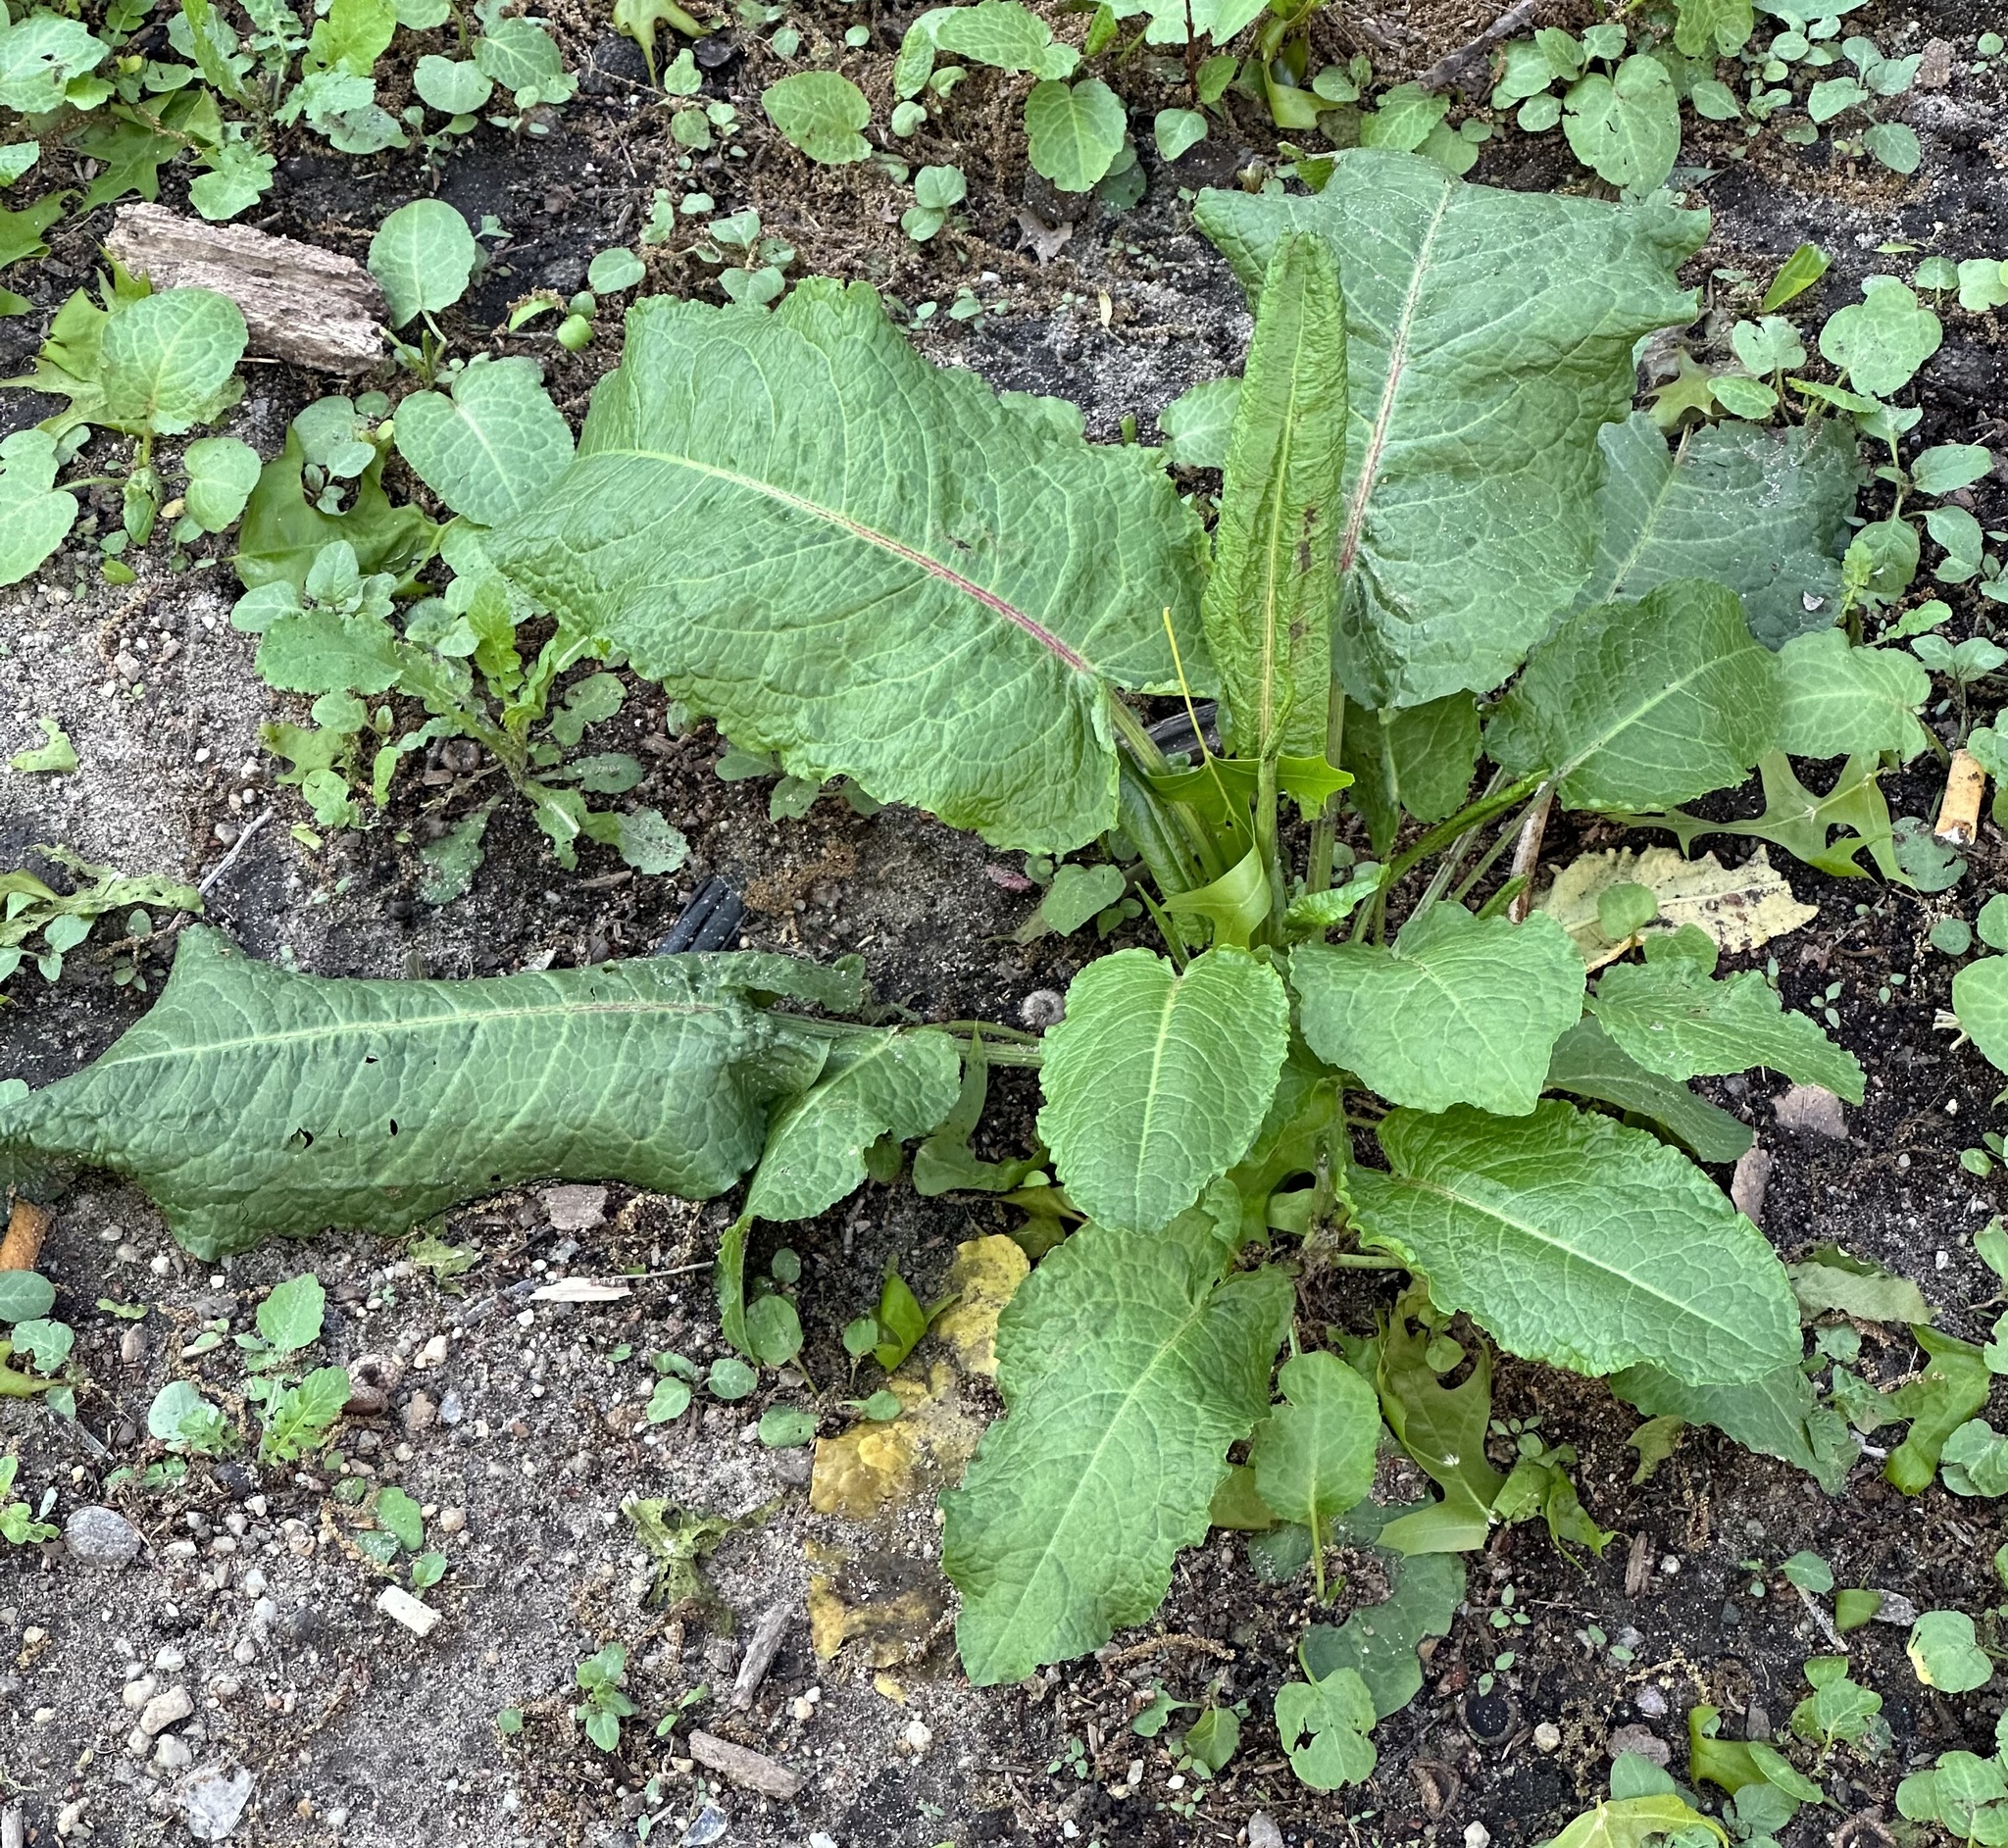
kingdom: Plantae
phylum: Tracheophyta
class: Magnoliopsida
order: Caryophyllales
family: Polygonaceae
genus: Rumex
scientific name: Rumex obtusifolius
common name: Bitter dock
